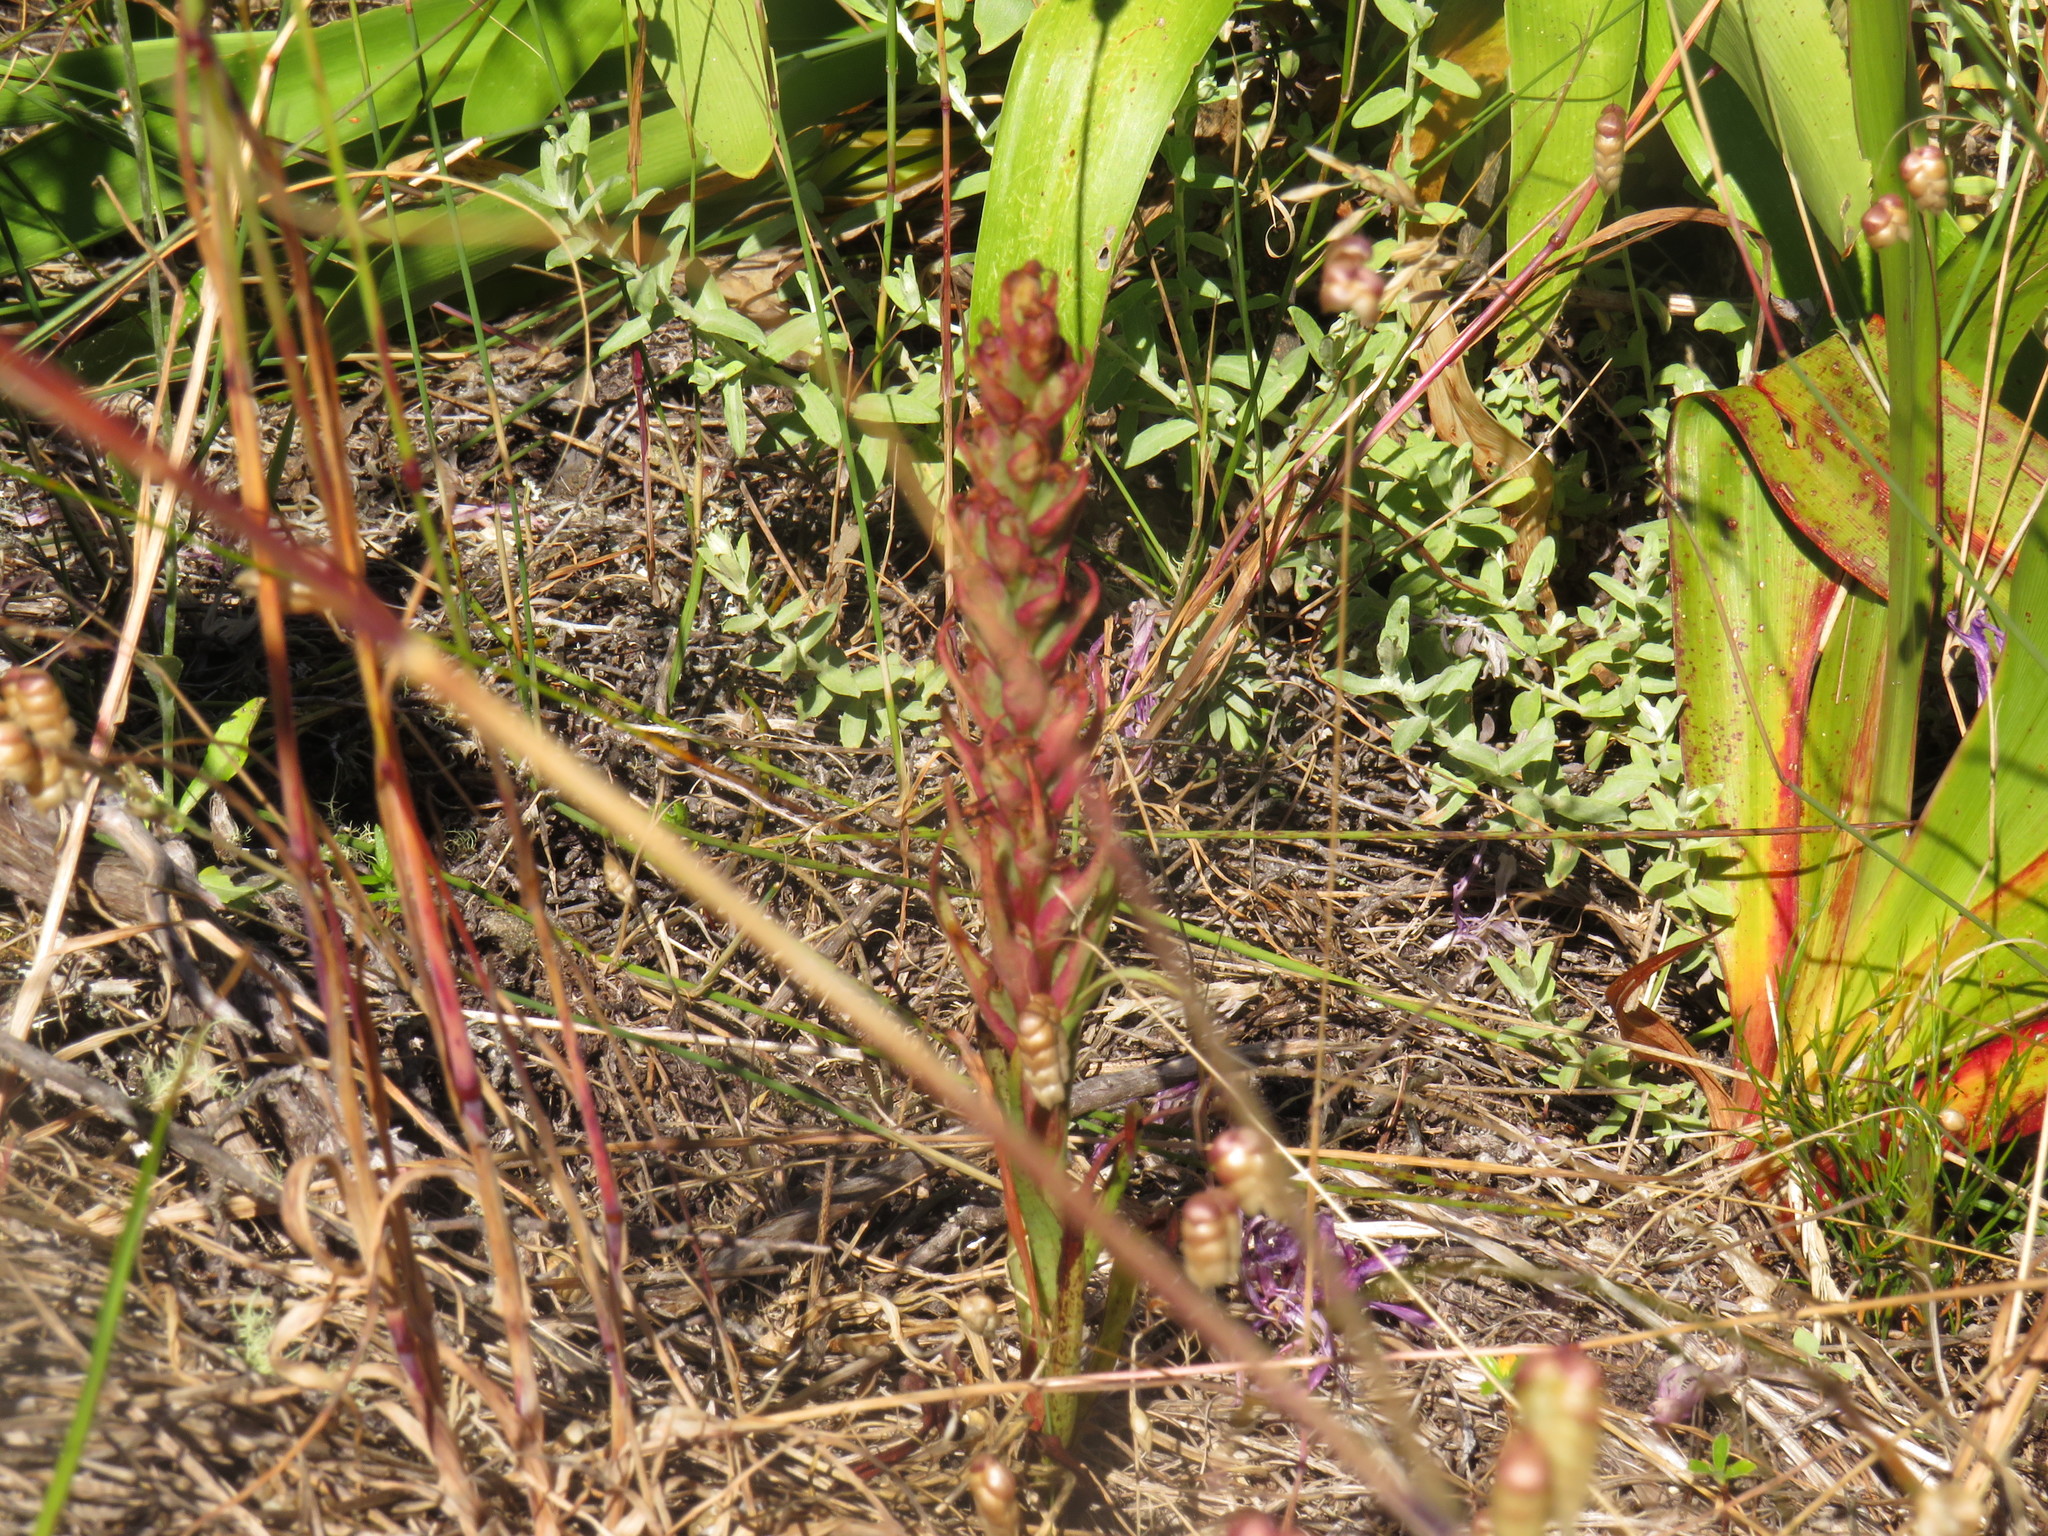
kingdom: Plantae
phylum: Tracheophyta
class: Liliopsida
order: Asparagales
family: Orchidaceae
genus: Disa
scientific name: Disa bracteata
